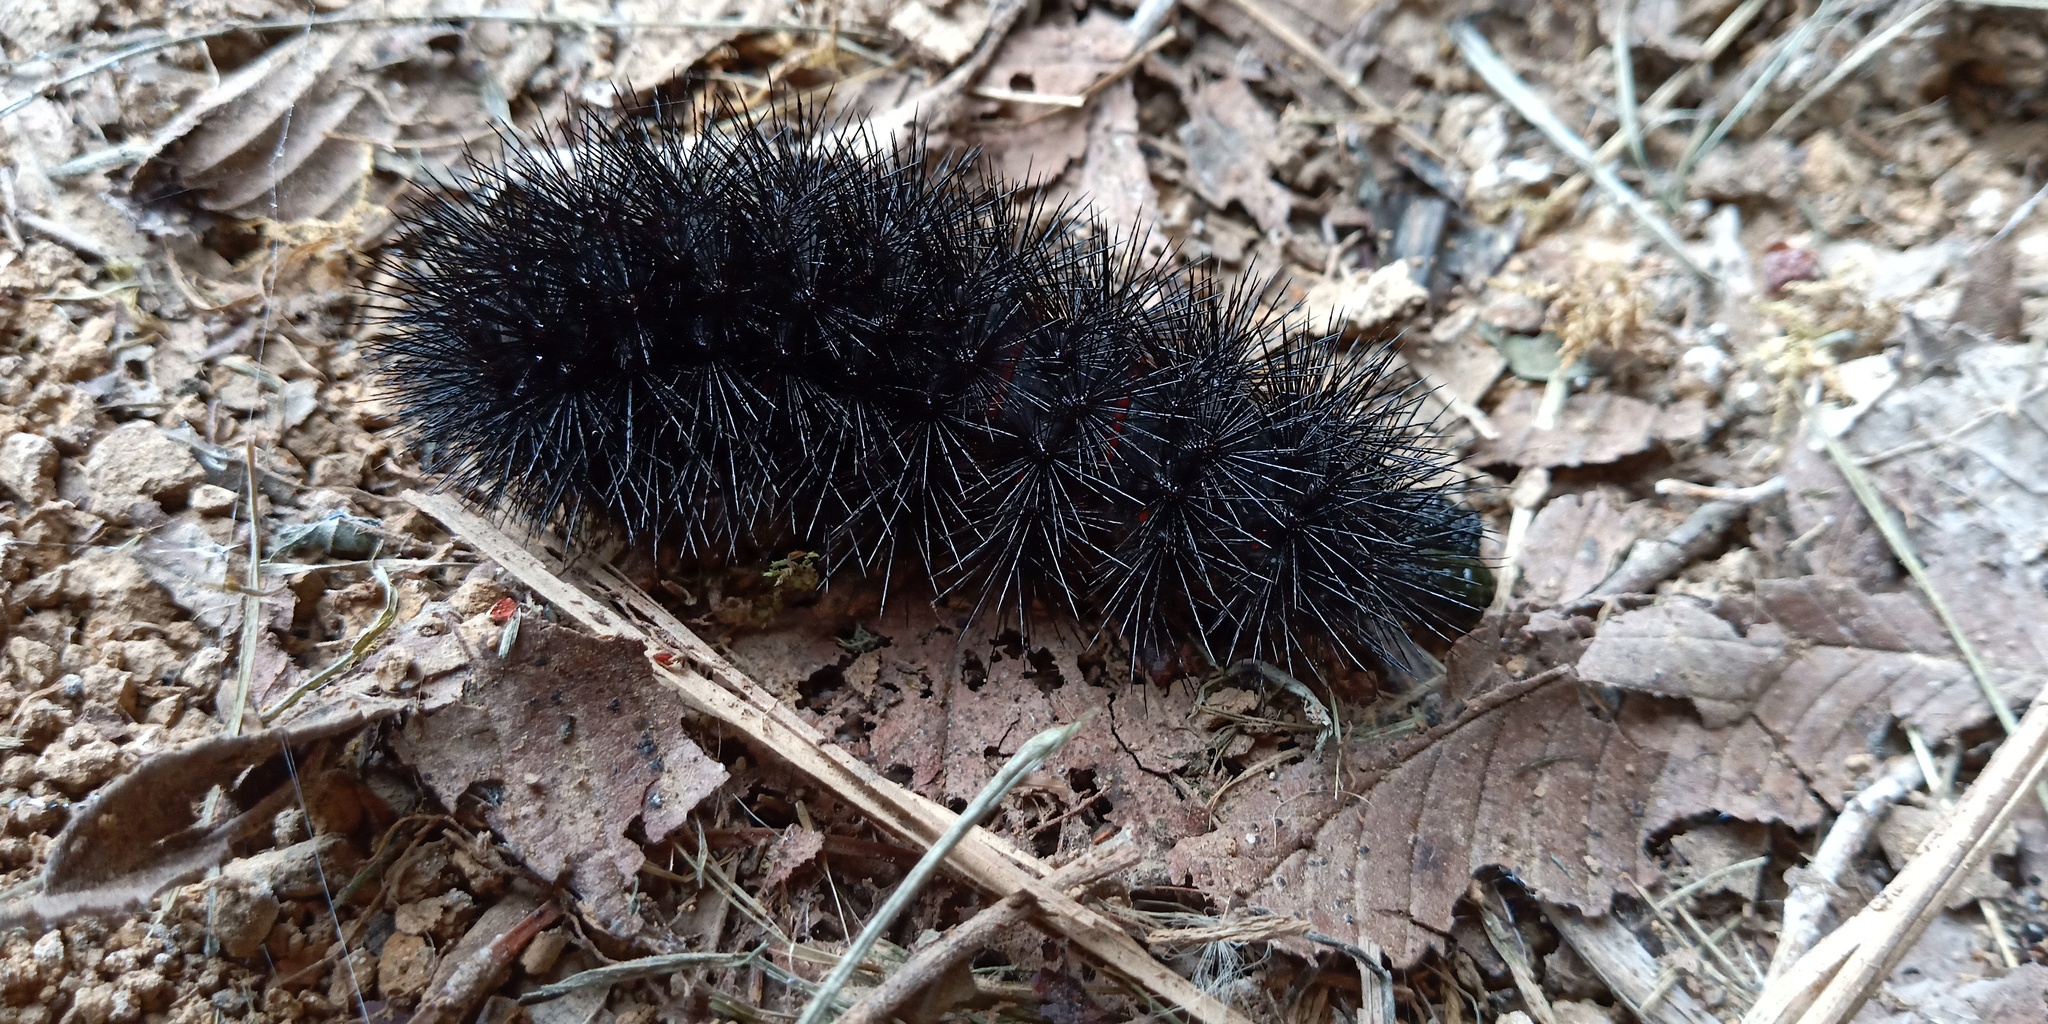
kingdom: Animalia
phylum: Arthropoda
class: Insecta
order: Lepidoptera
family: Erebidae
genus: Hypercompe
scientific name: Hypercompe scribonia
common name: Giant leopard moth
